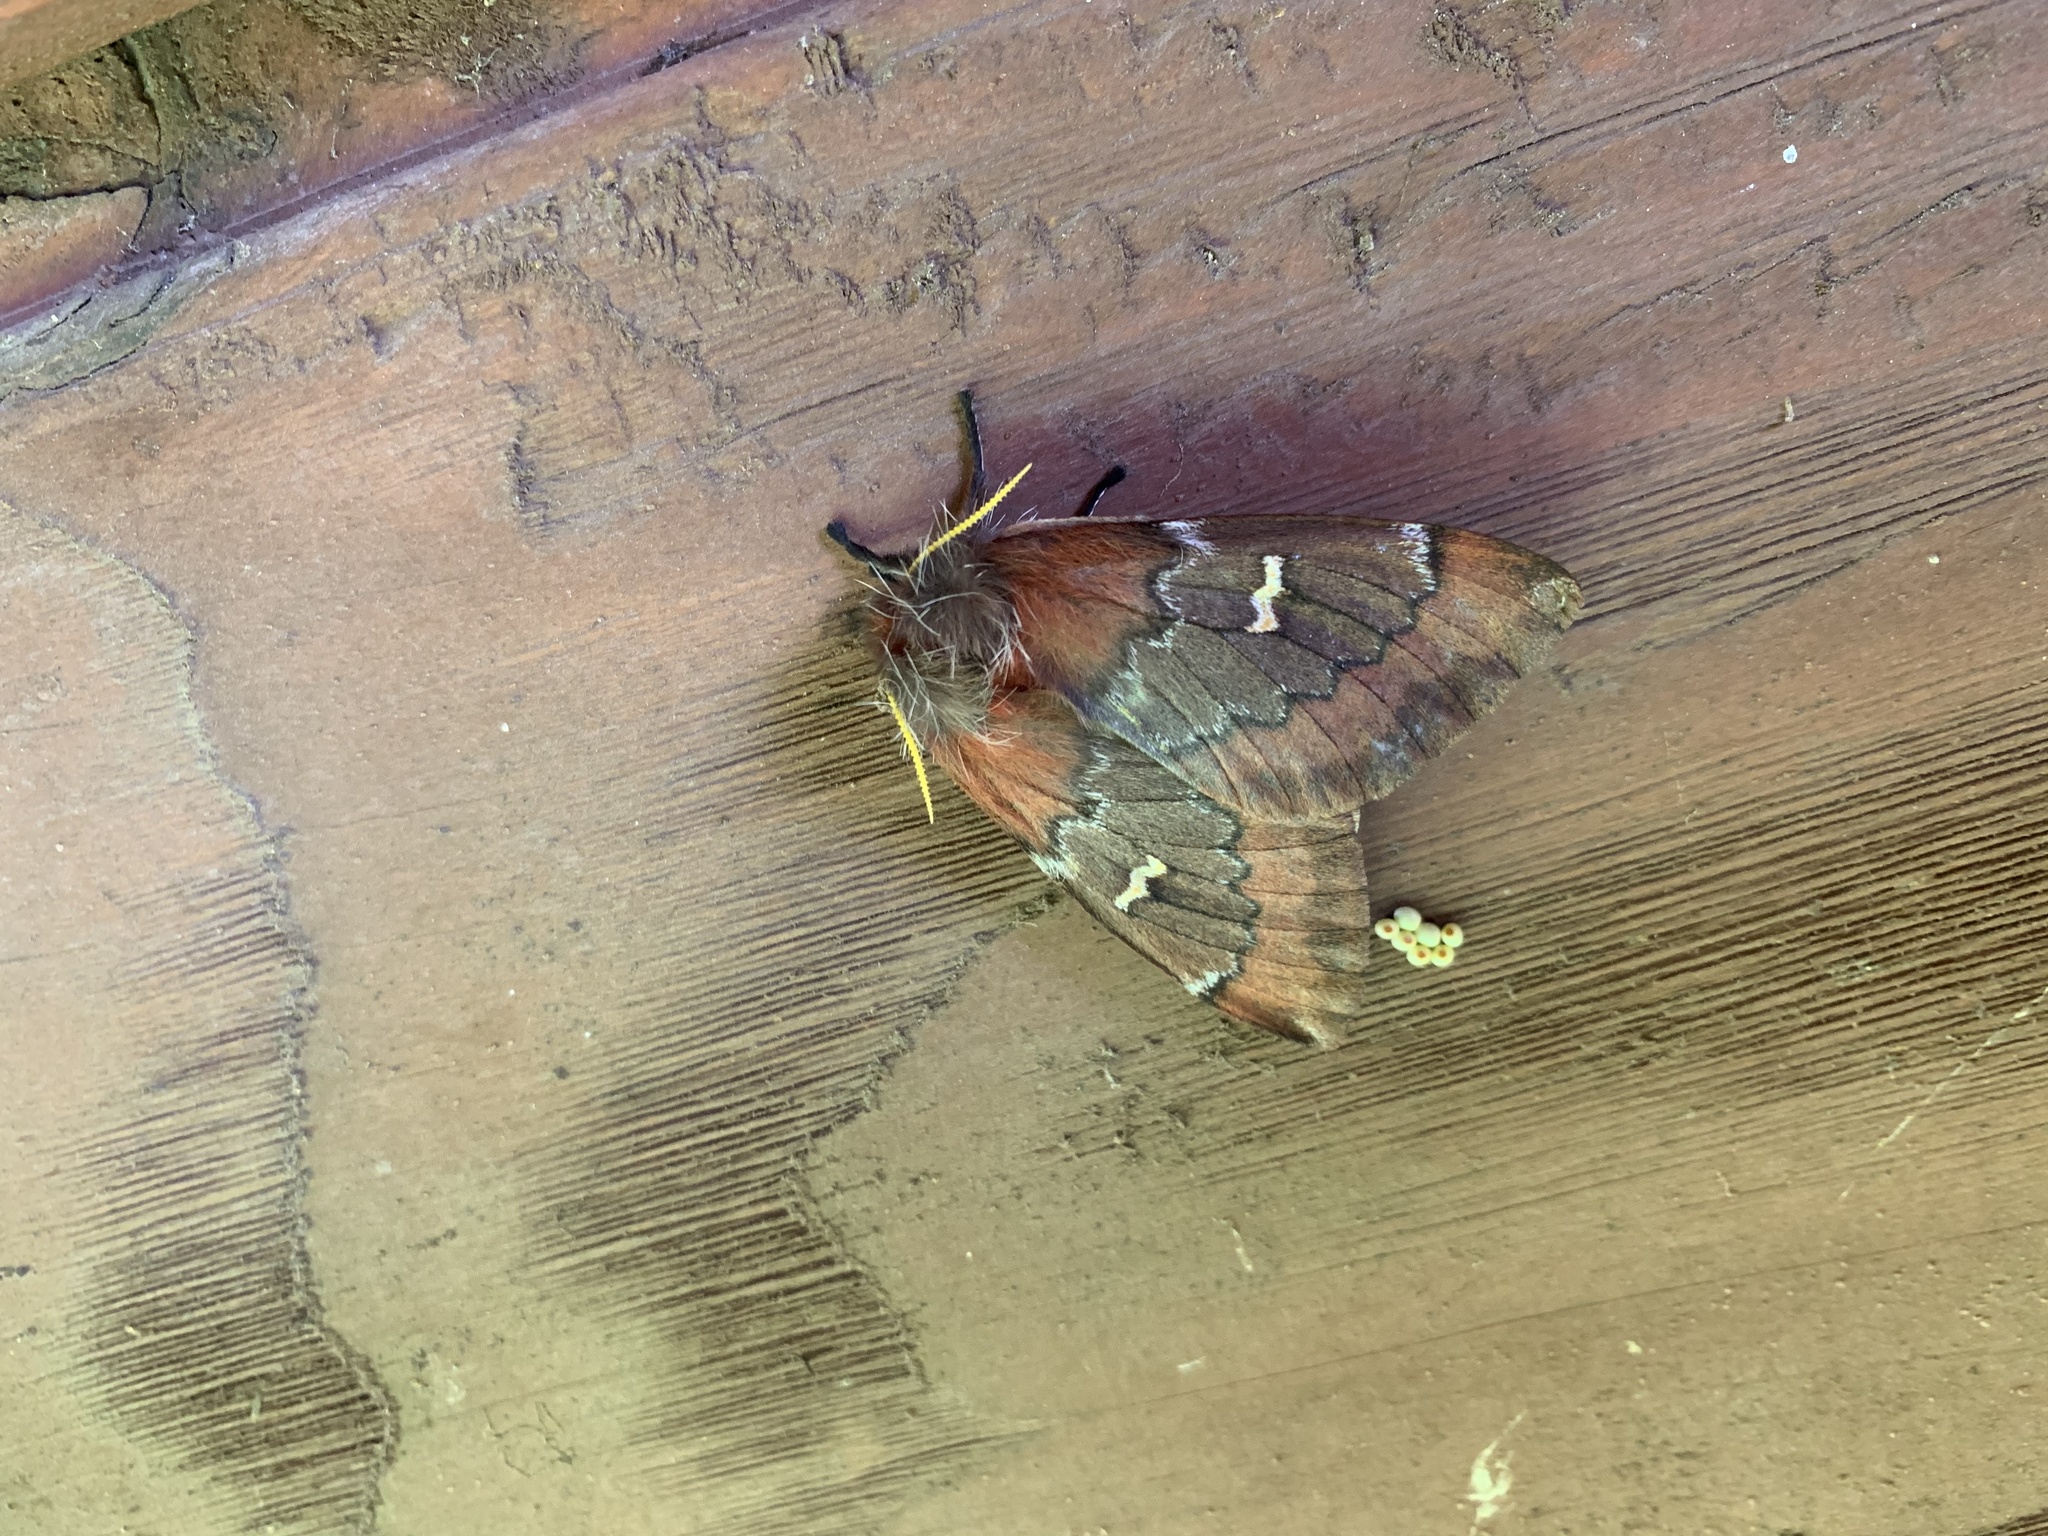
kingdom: Animalia
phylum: Arthropoda
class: Insecta
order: Lepidoptera
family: Saturniidae
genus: Ormiscodes
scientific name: Ormiscodes joiceyi
